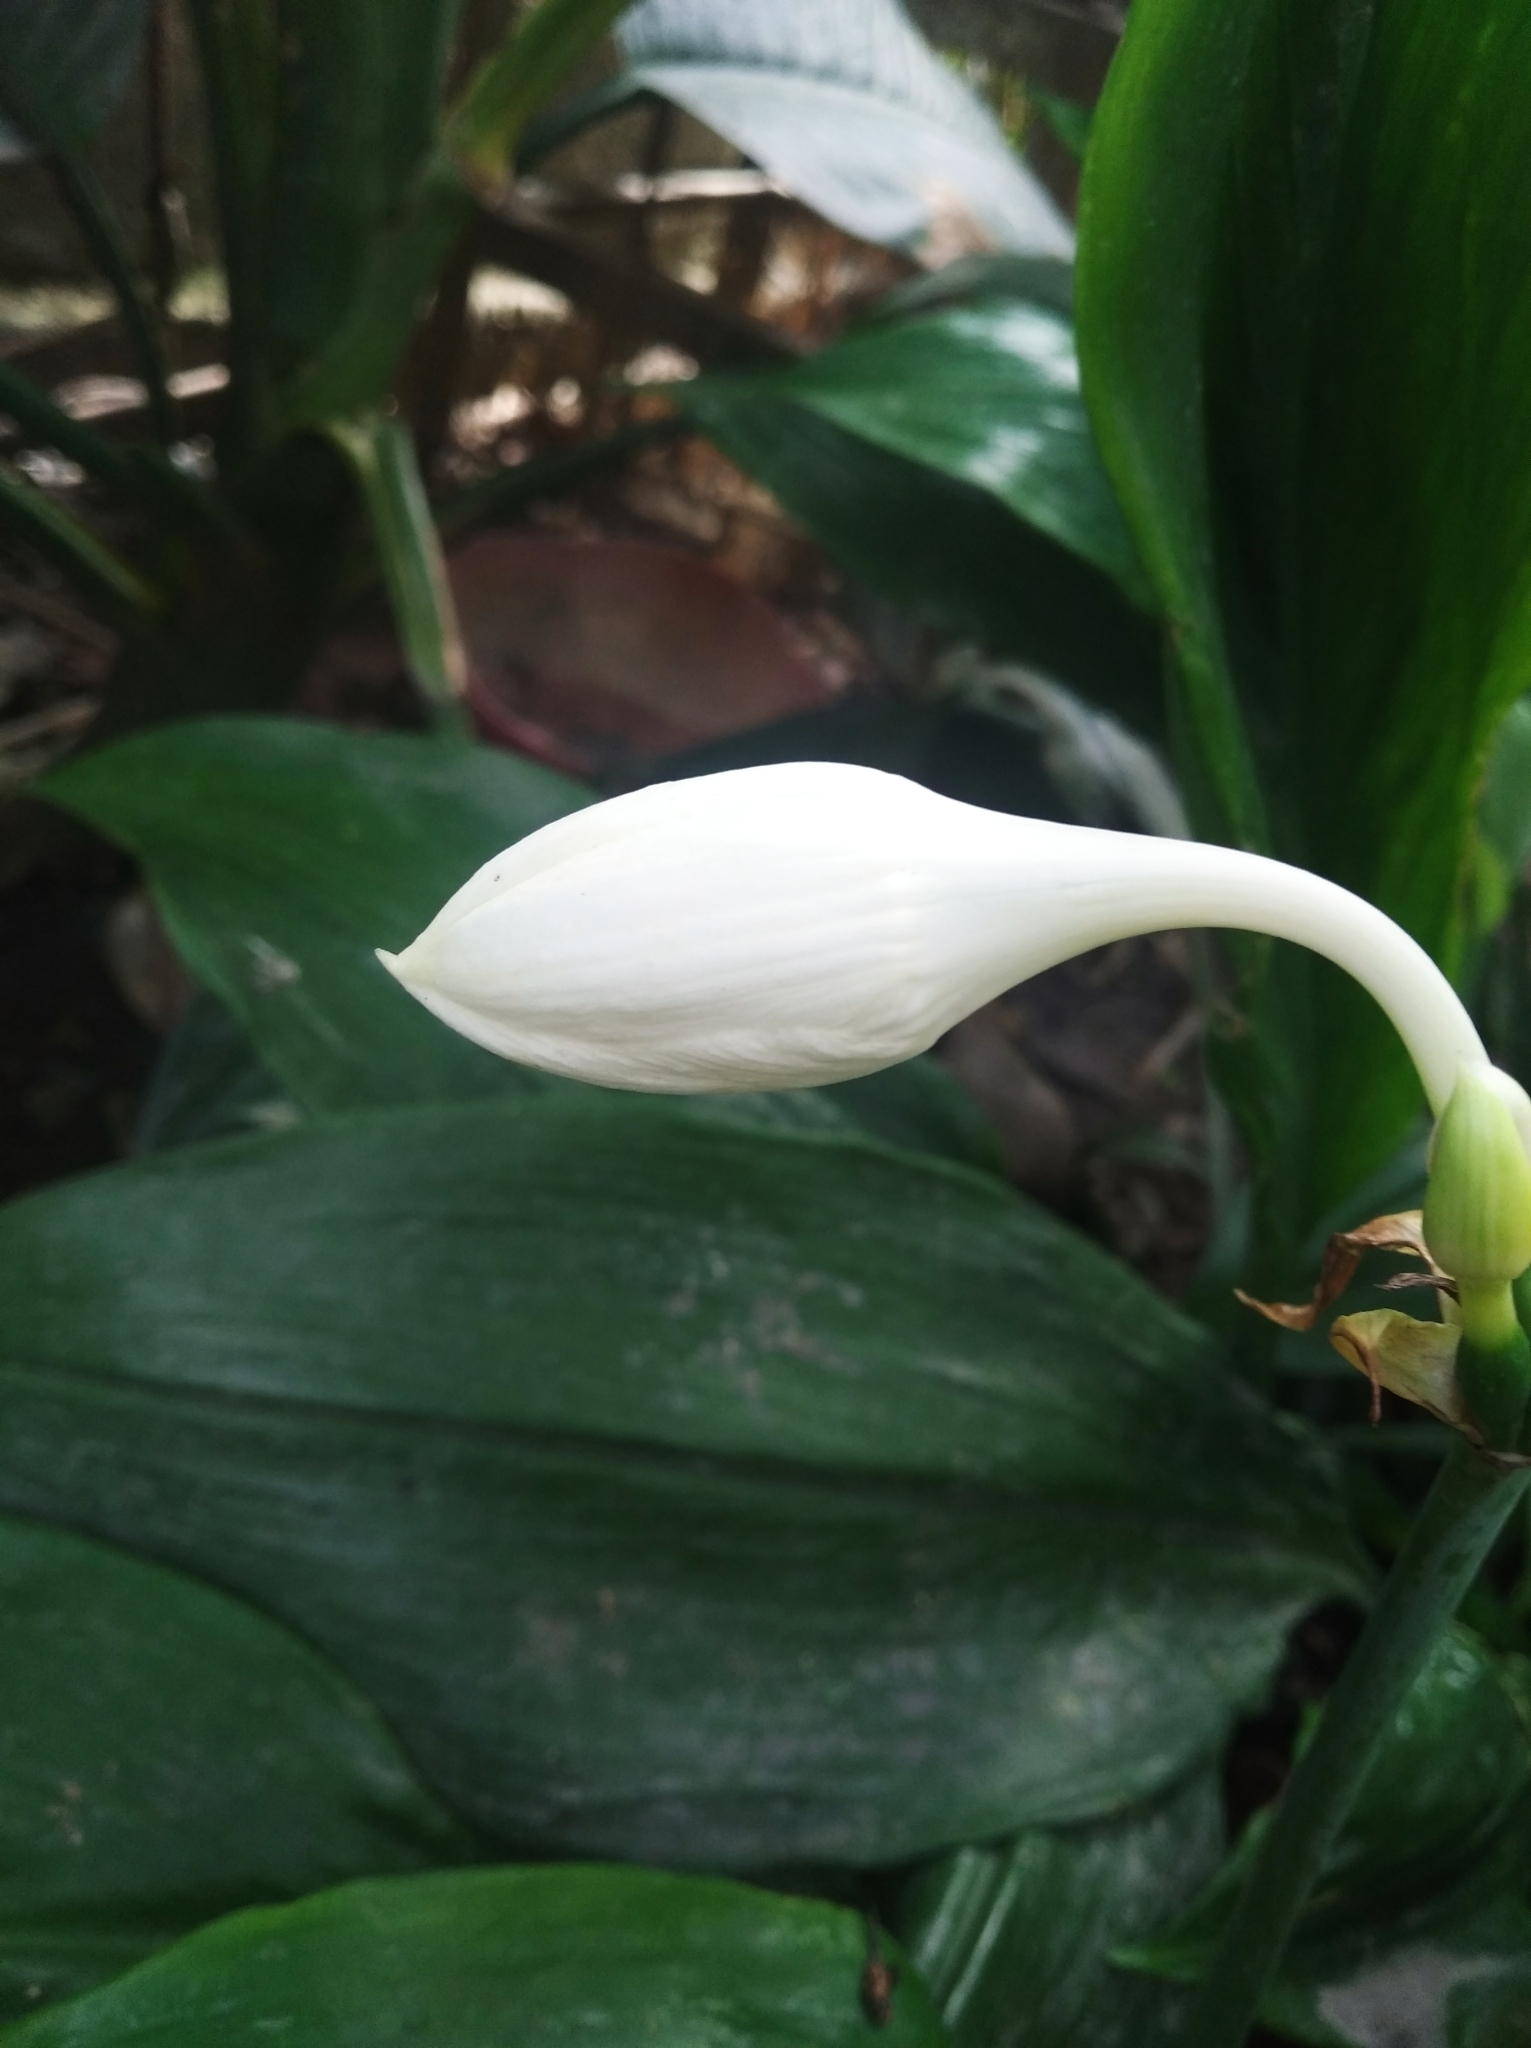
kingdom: Plantae
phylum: Tracheophyta
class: Liliopsida
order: Asparagales
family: Amaryllidaceae
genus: Urceolina
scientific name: Urceolina amazonica
